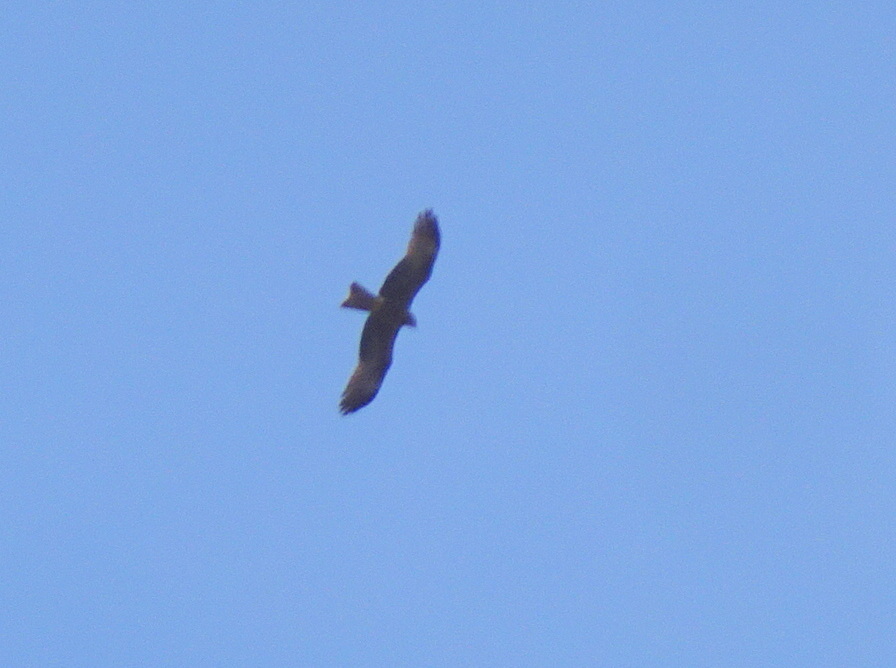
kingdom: Animalia
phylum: Chordata
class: Aves
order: Accipitriformes
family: Accipitridae
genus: Milvus
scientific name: Milvus migrans
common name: Black kite
